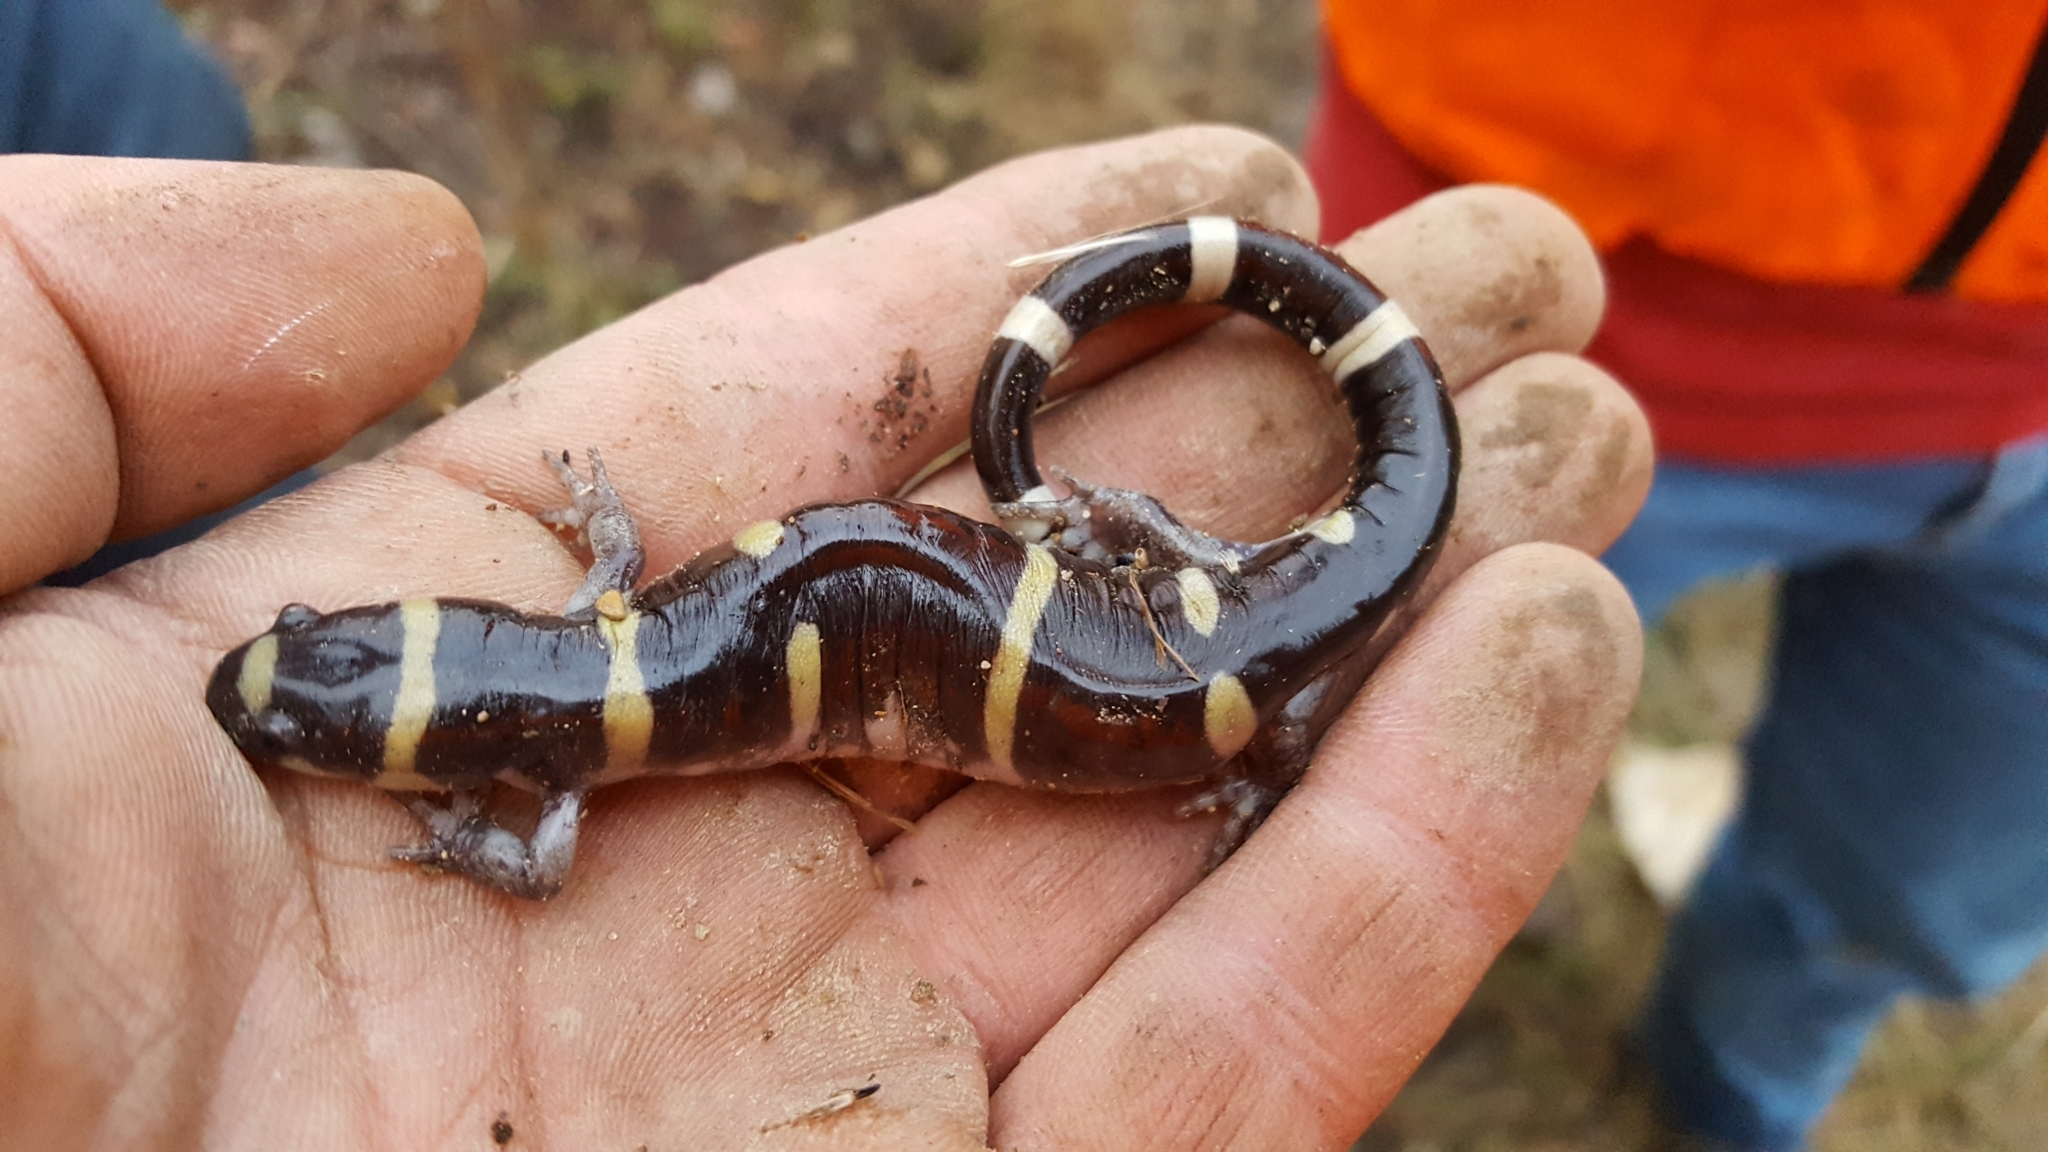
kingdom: Animalia
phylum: Chordata
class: Amphibia
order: Caudata
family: Ambystomatidae
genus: Ambystoma
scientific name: Ambystoma annulatum
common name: Ringed salamander
